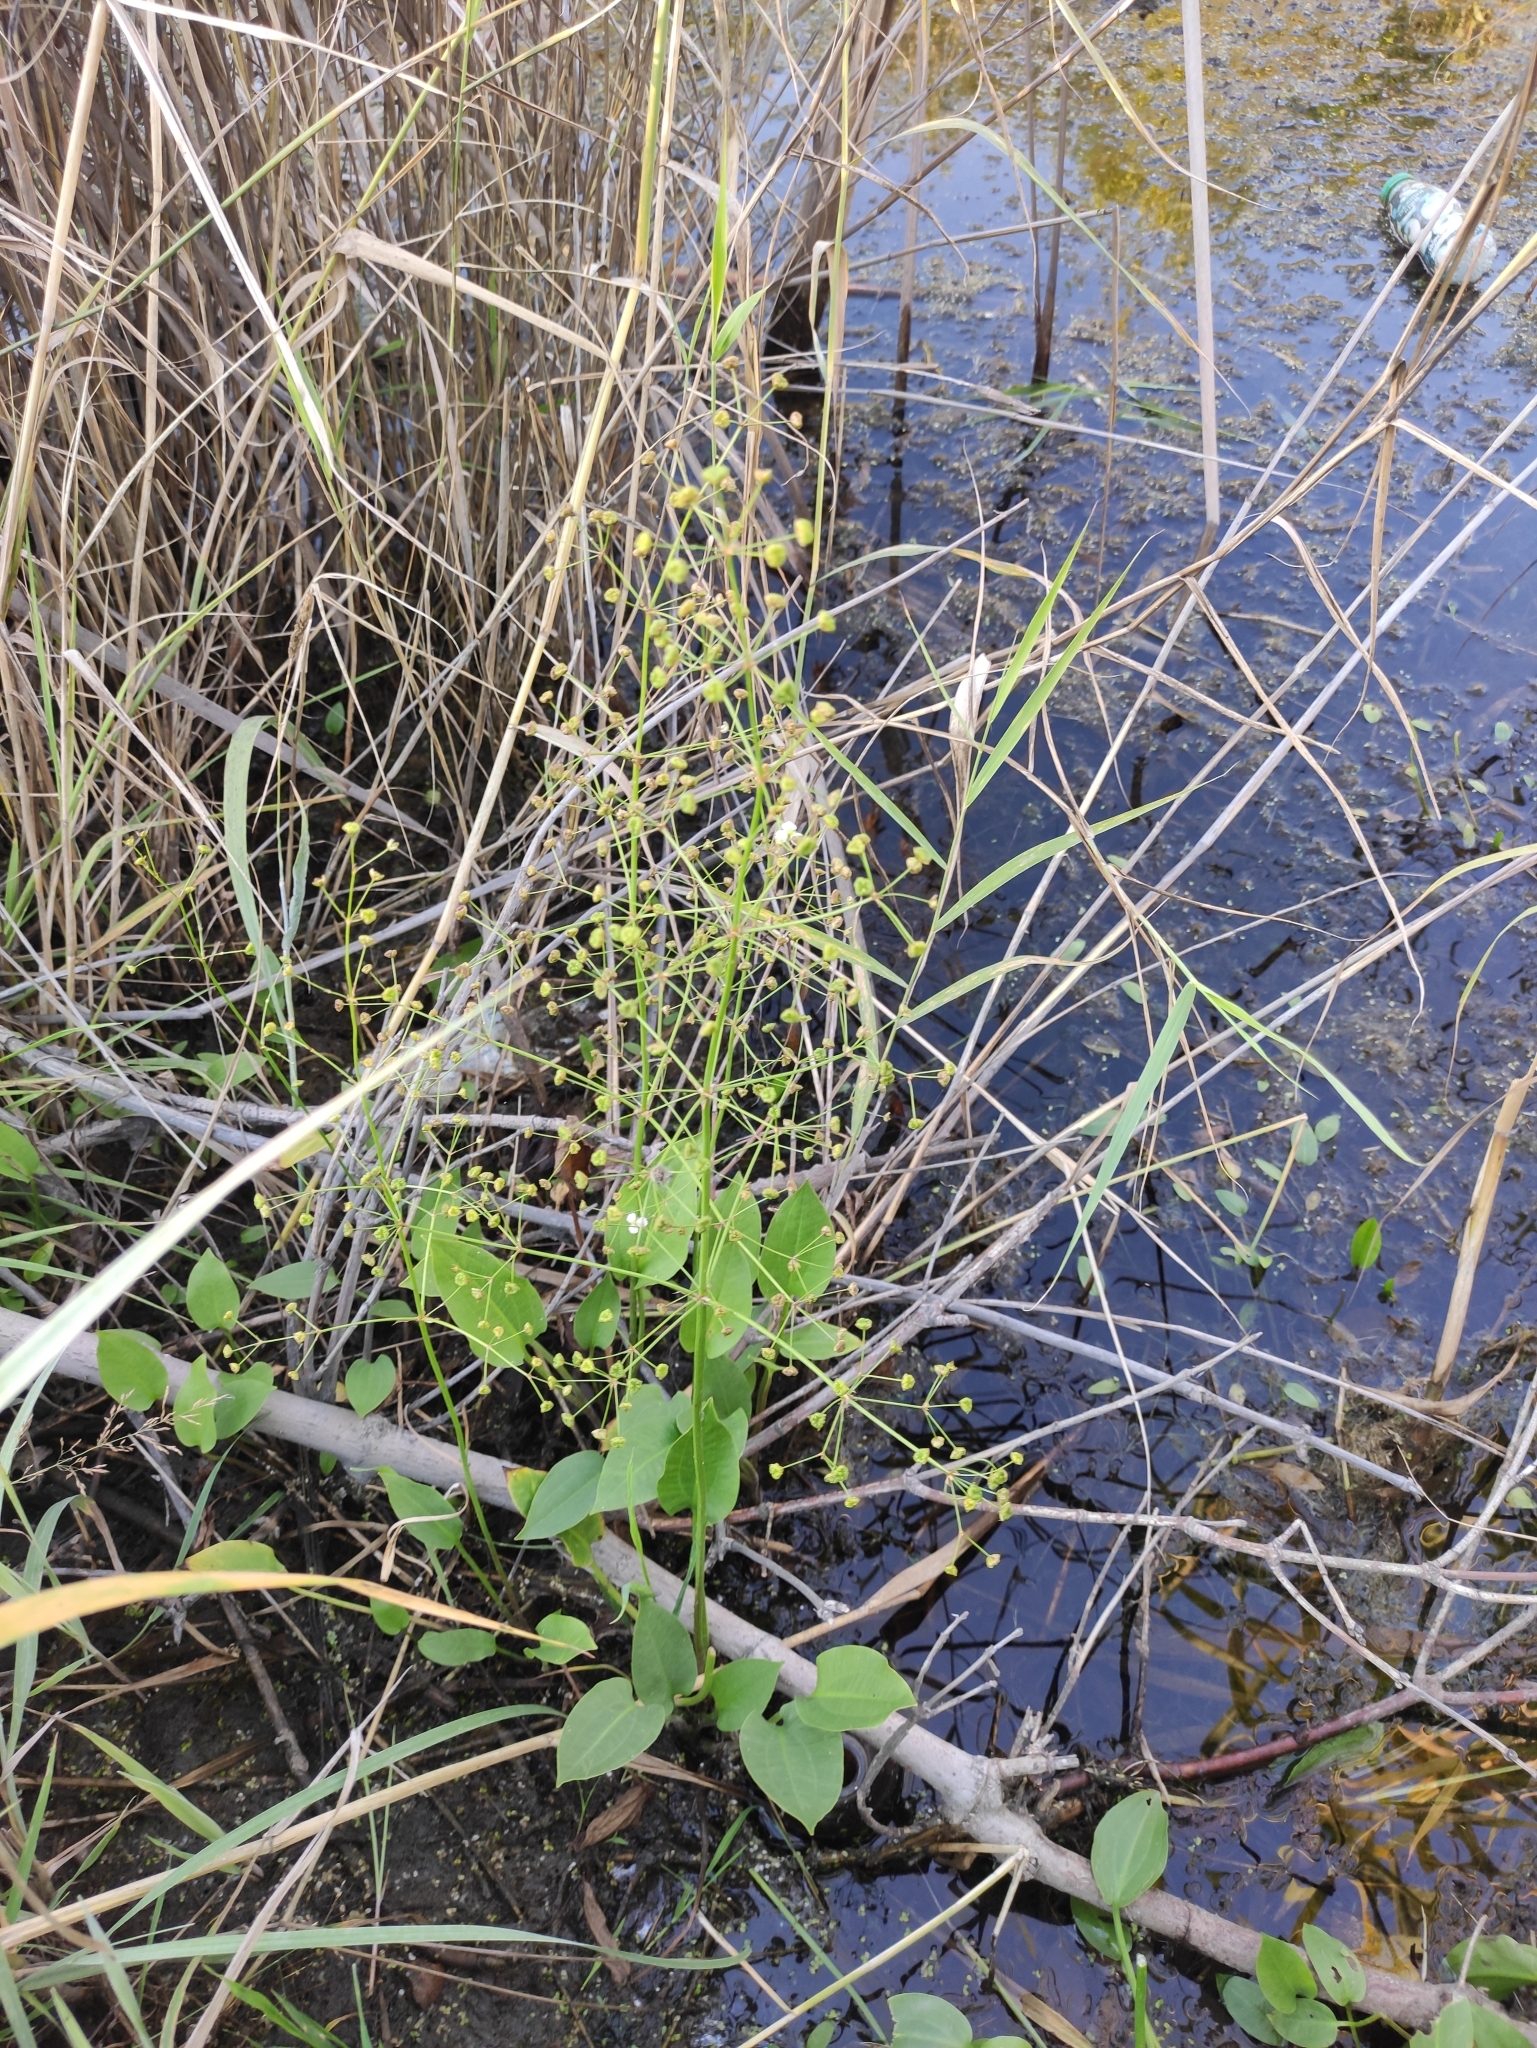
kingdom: Plantae
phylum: Tracheophyta
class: Liliopsida
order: Alismatales
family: Alismataceae
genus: Alisma
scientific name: Alisma plantago-aquatica
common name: Water-plantain
